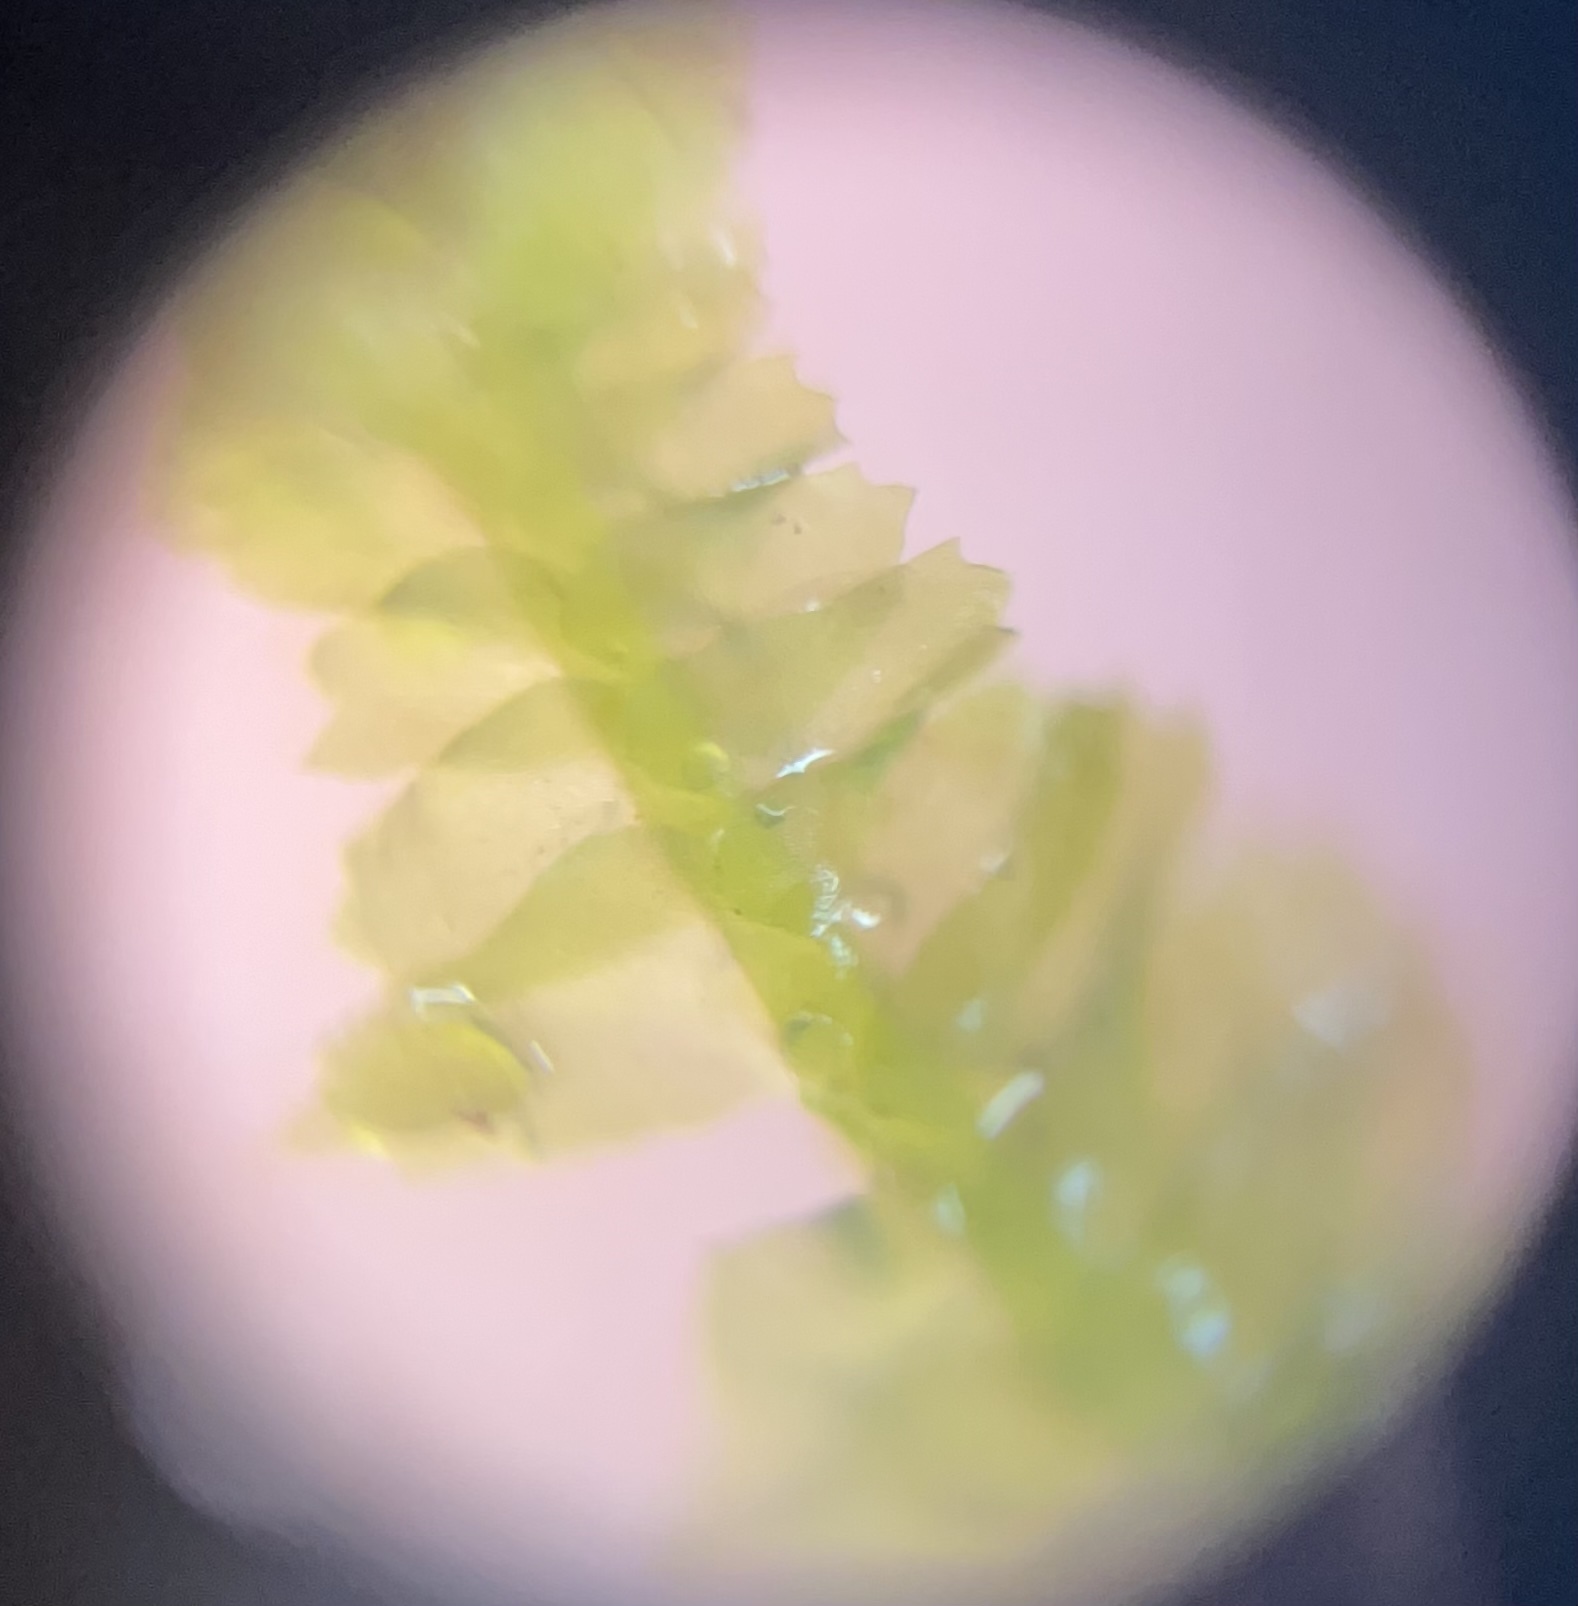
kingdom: Plantae
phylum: Marchantiophyta
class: Jungermanniopsida
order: Jungermanniales
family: Lepidoziaceae
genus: Bazzania
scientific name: Bazzania trilobata
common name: Three-lobed whipwort
